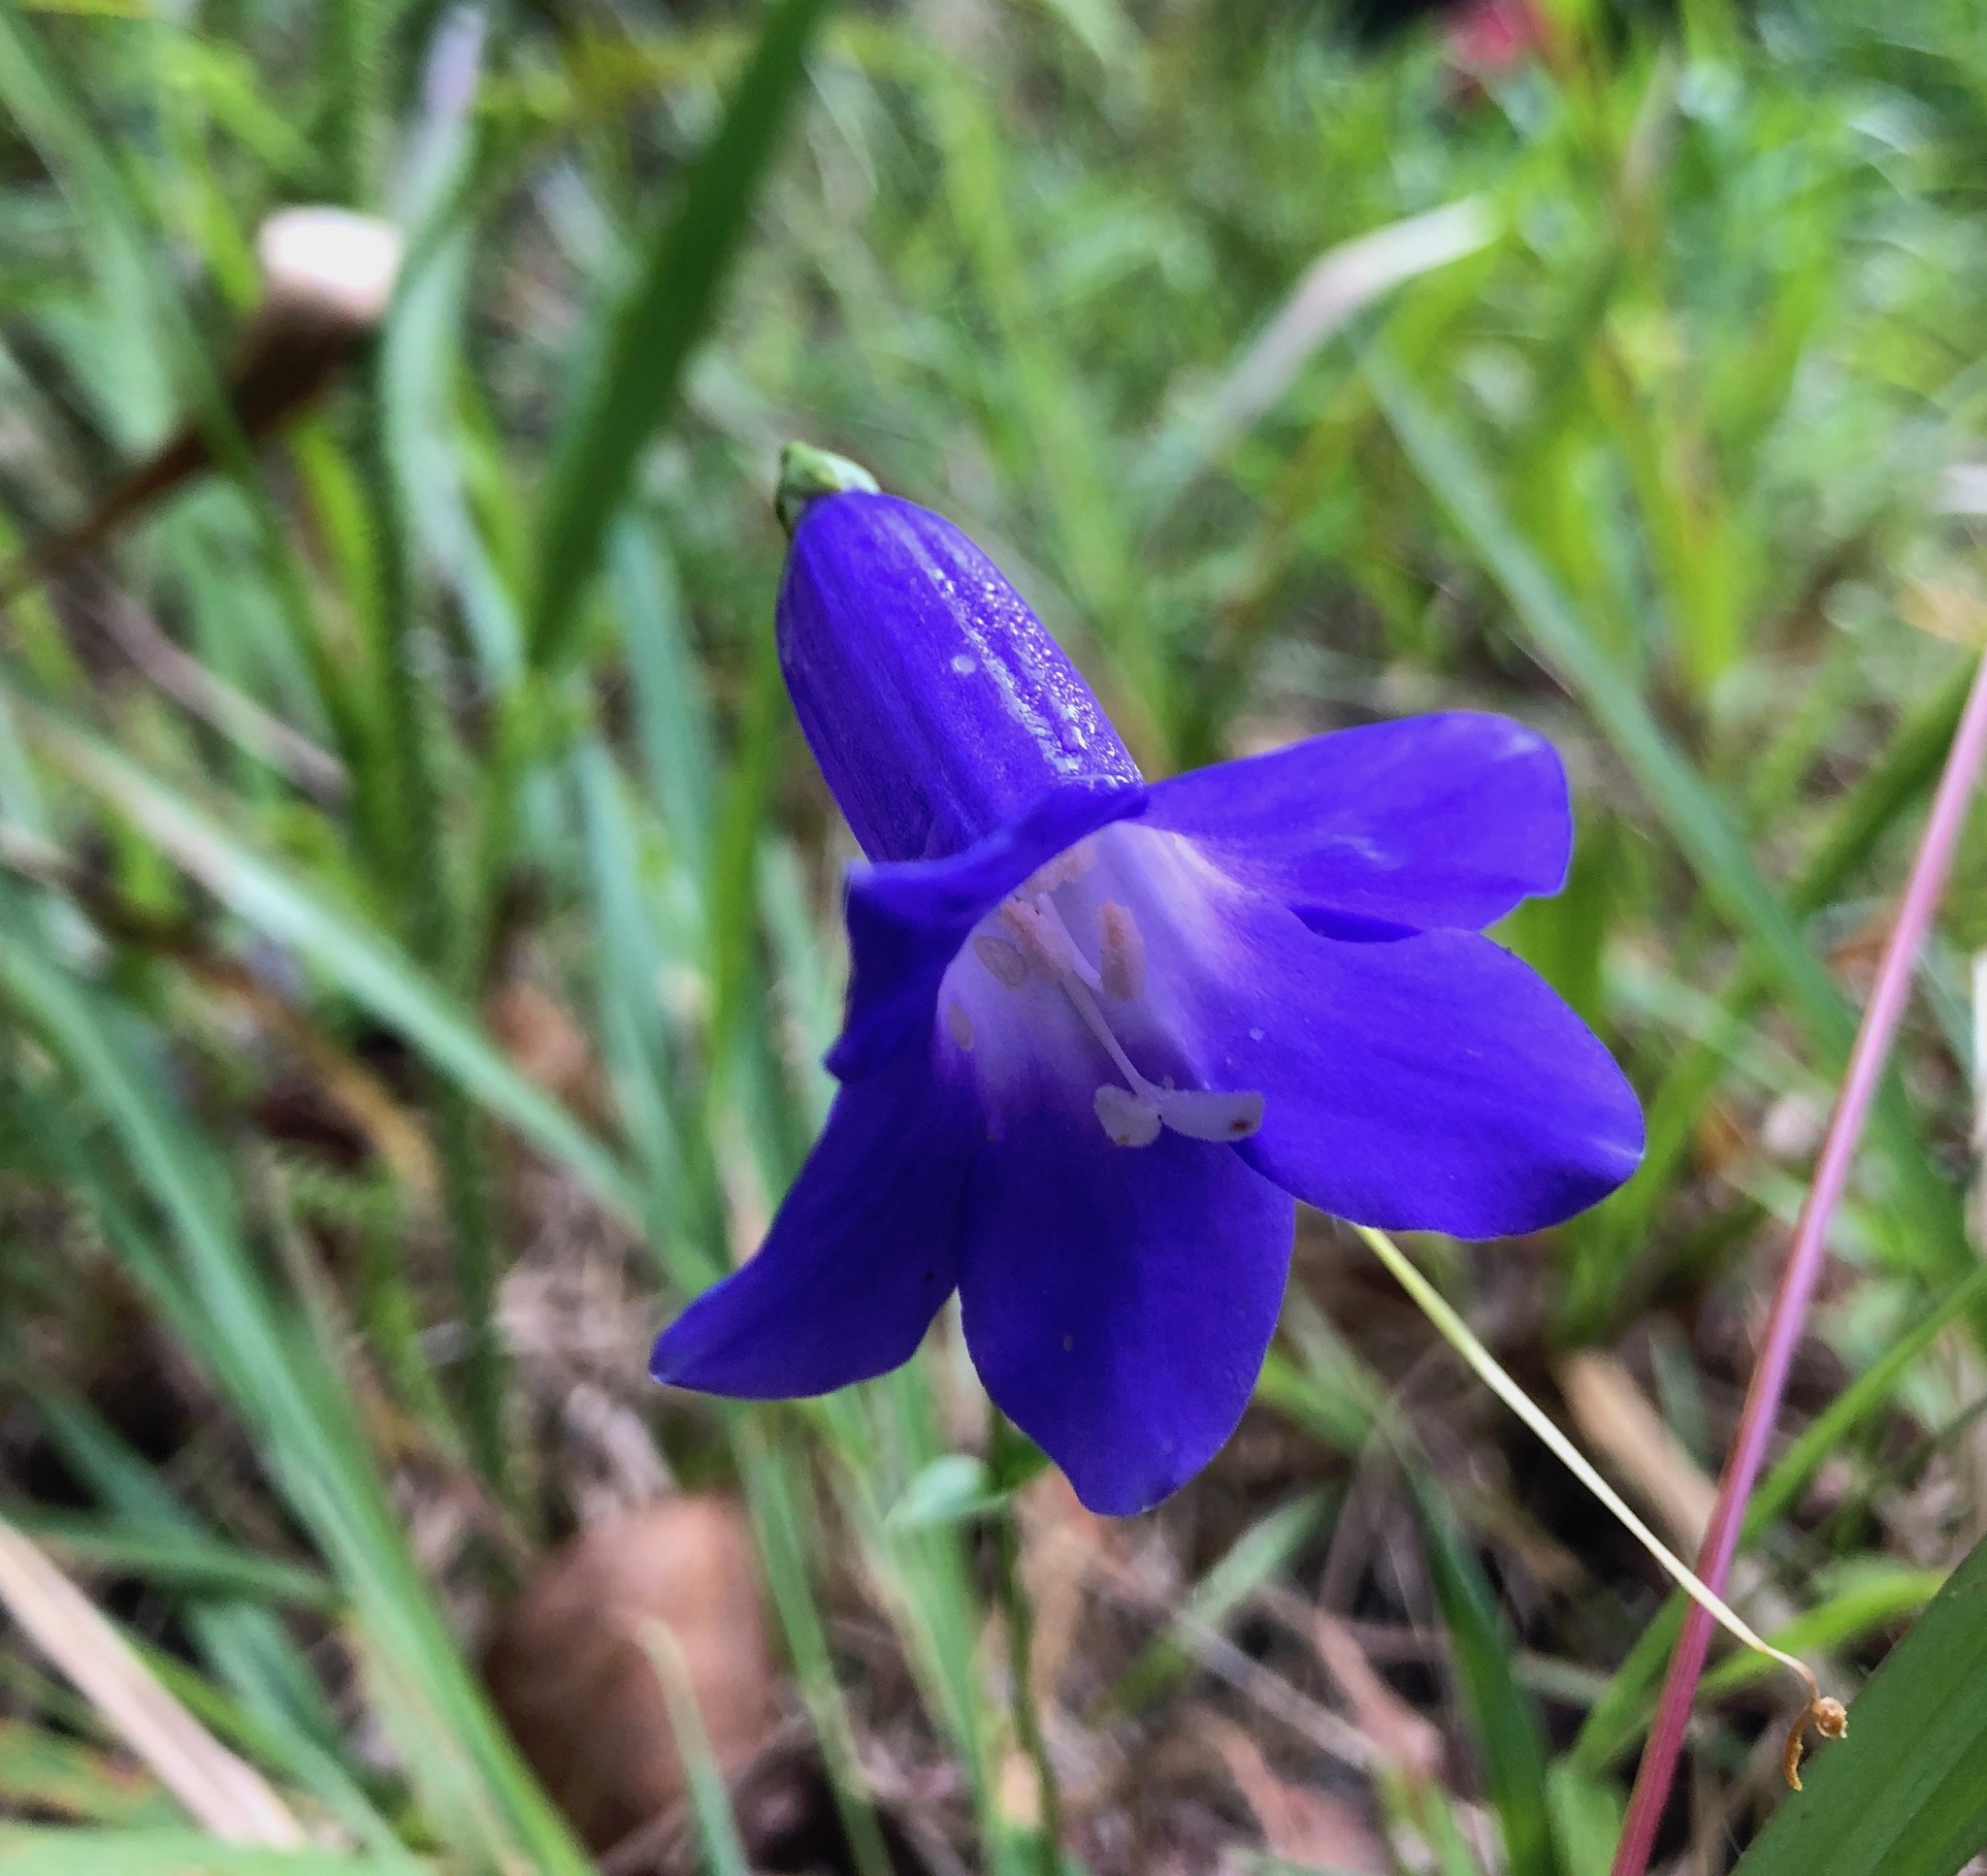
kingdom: Plantae
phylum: Tracheophyta
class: Magnoliopsida
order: Gentianales
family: Gentianaceae
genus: Chelonanthus
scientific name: Chelonanthus purpurascens
